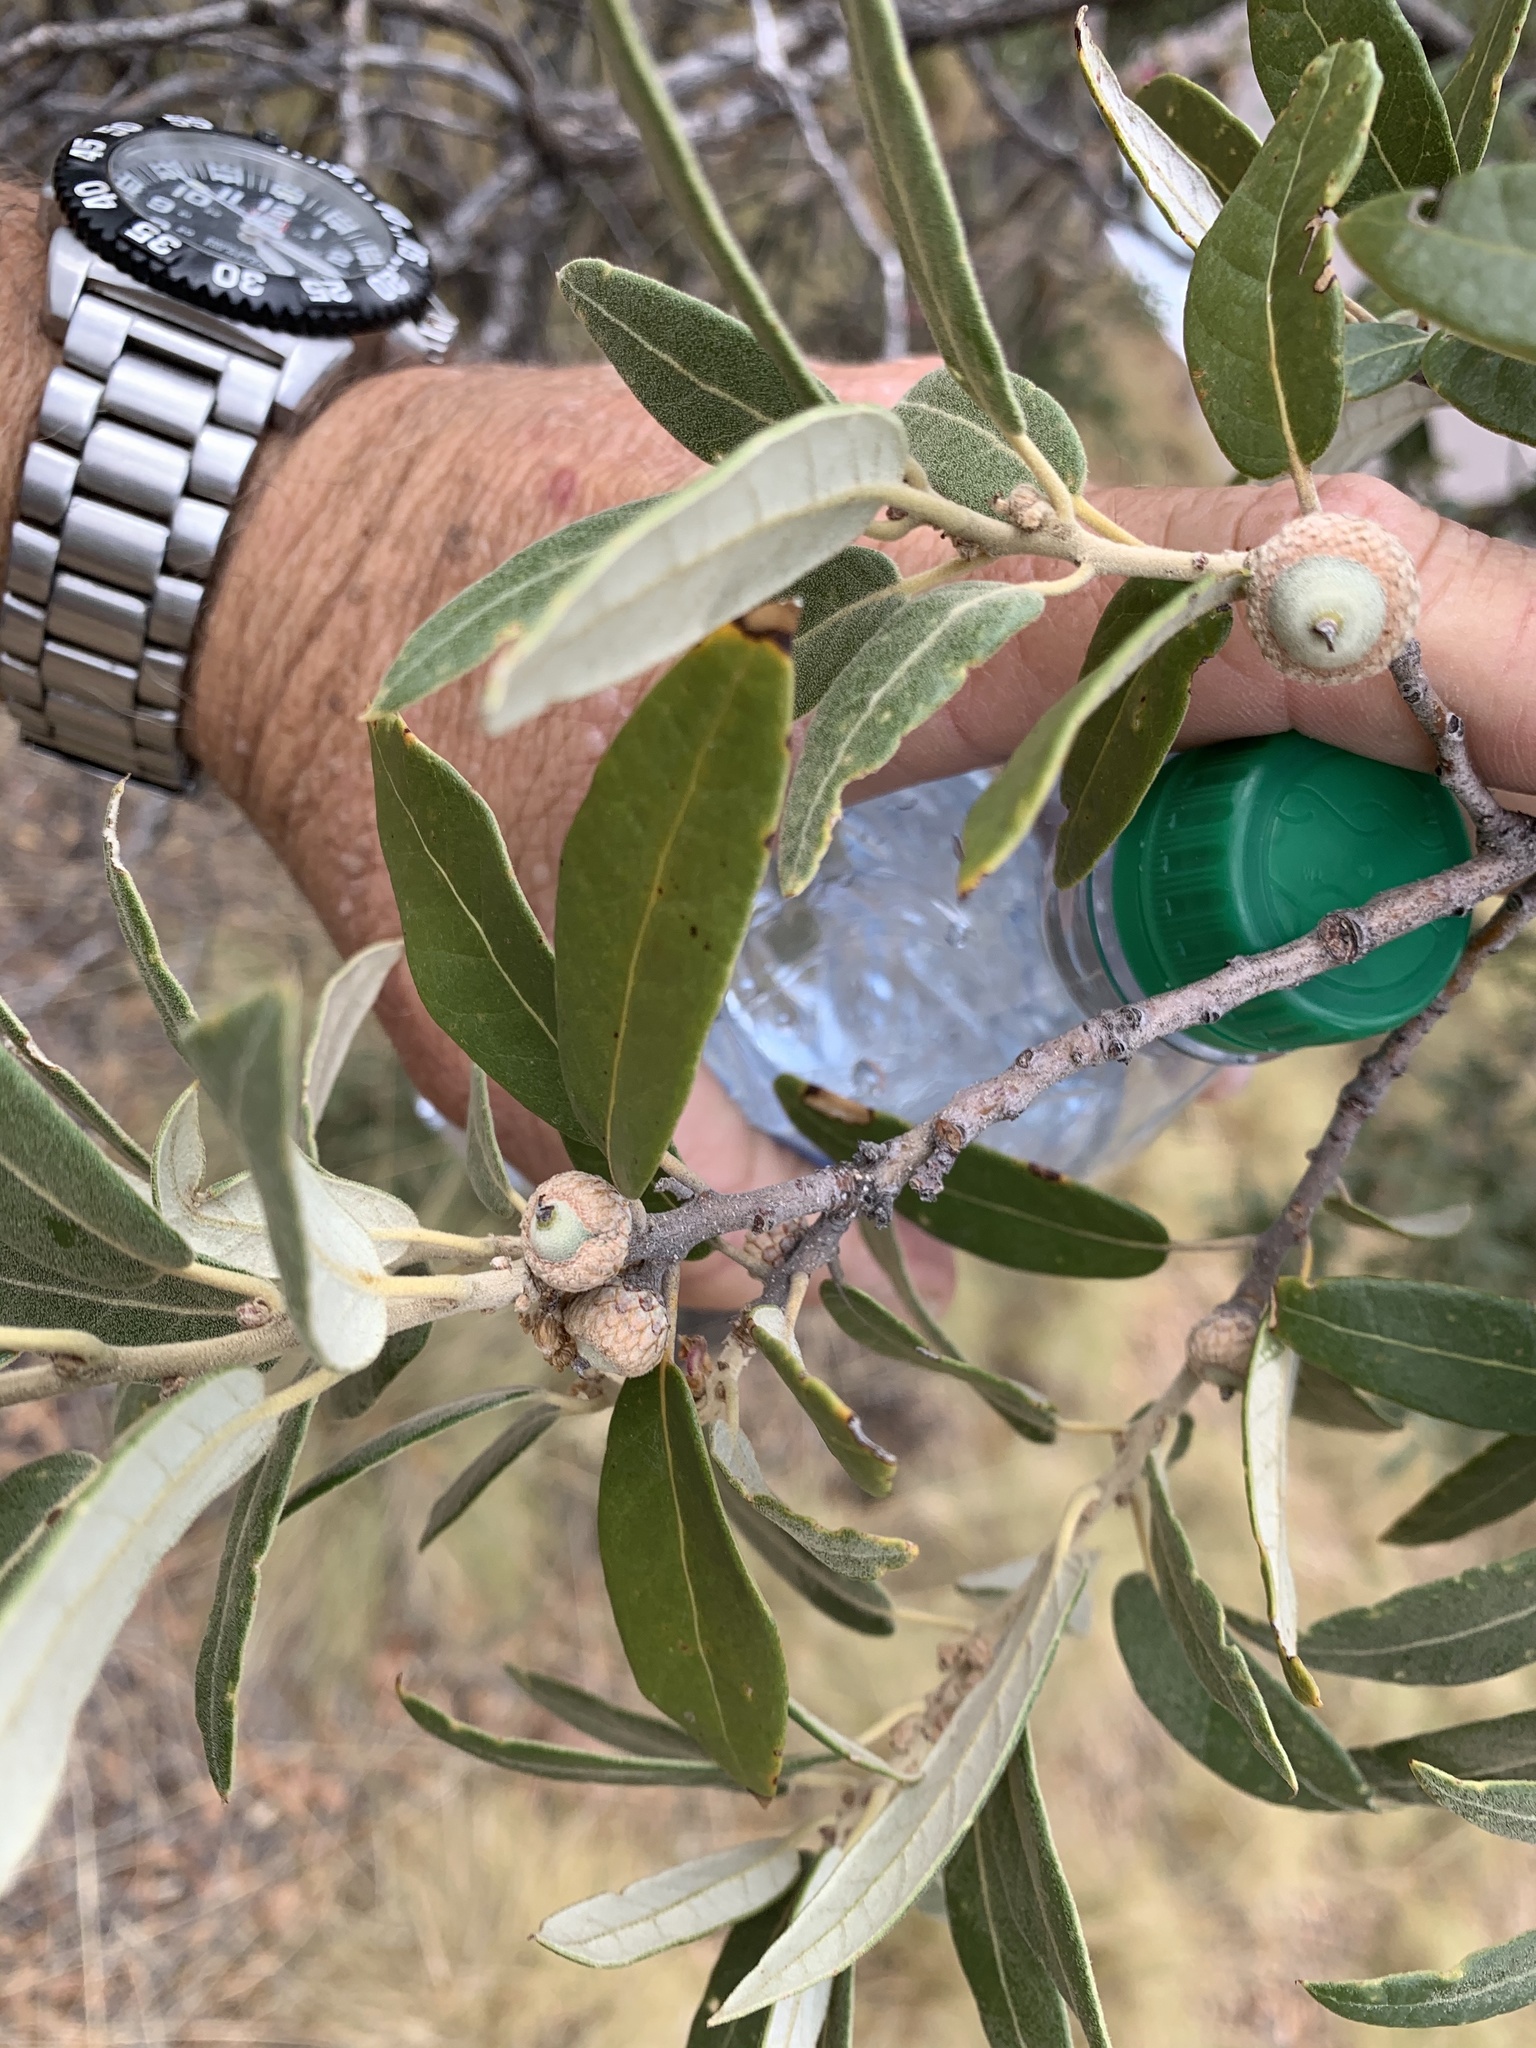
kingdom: Plantae
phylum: Tracheophyta
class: Magnoliopsida
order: Fagales
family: Fagaceae
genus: Quercus
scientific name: Quercus hypoleucoides
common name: Silverleaf oak
